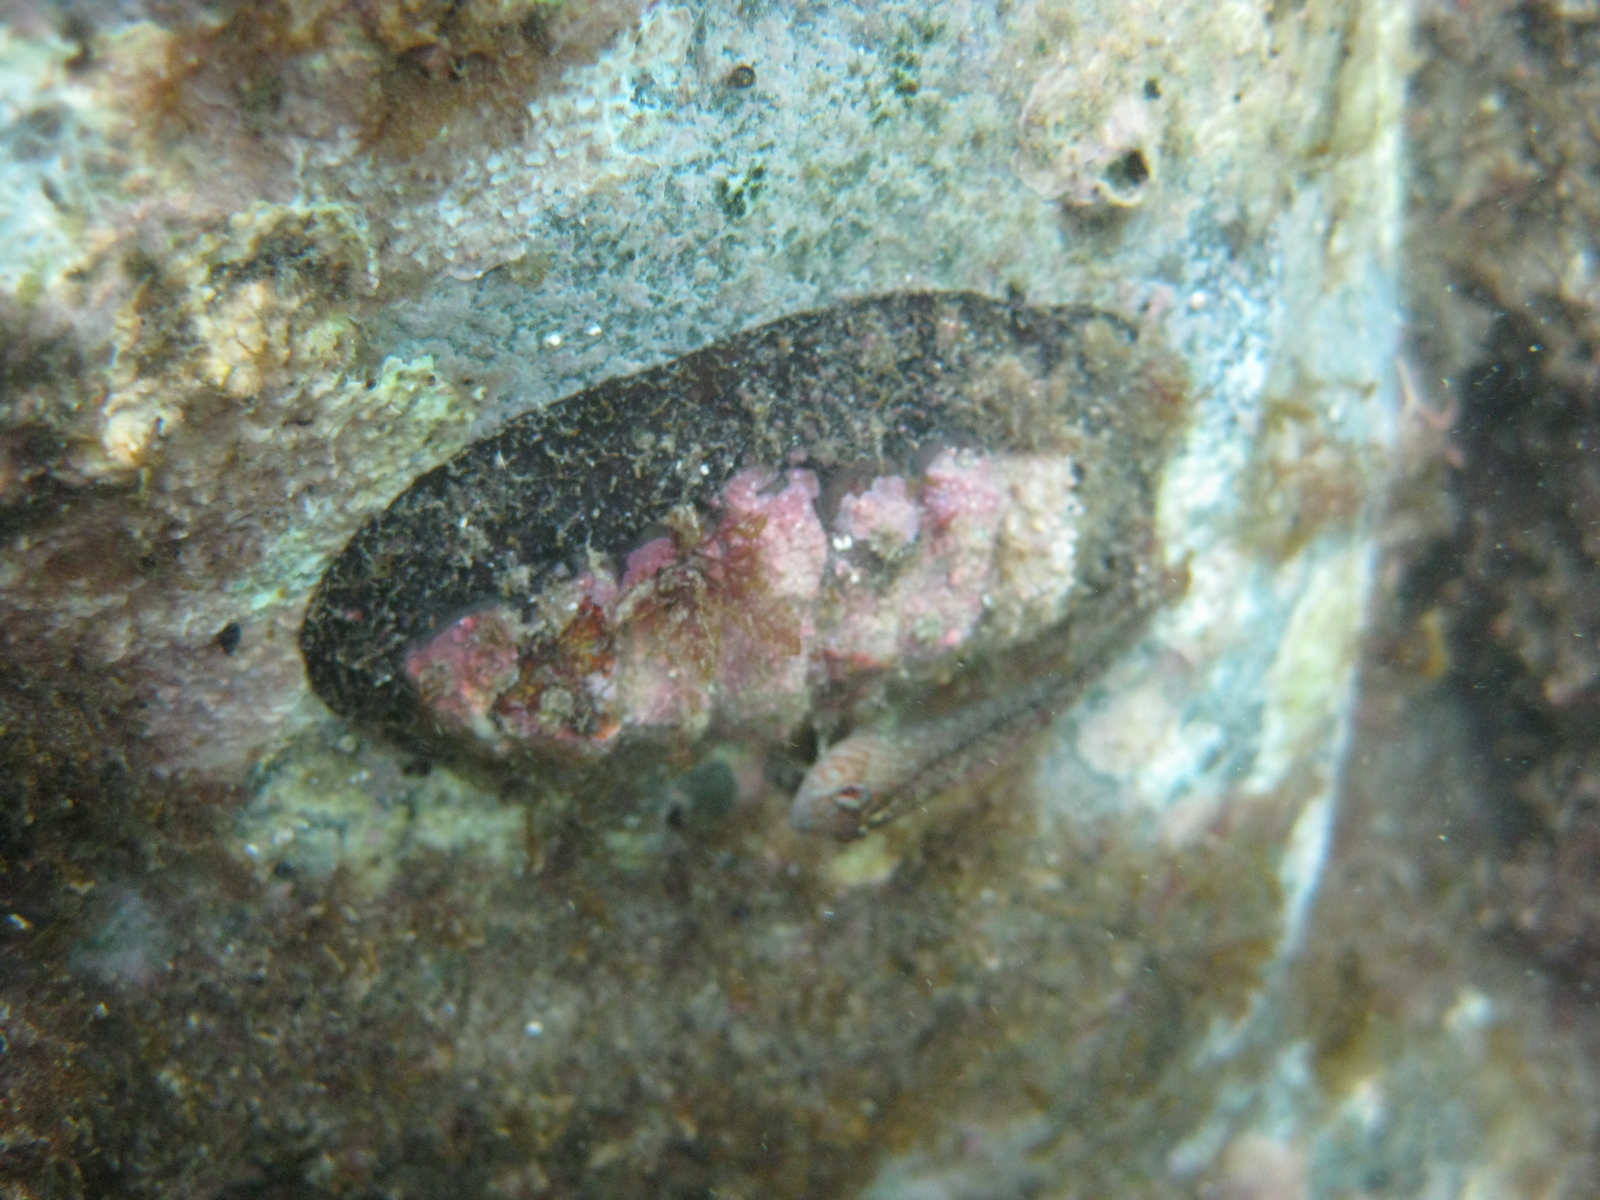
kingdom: Animalia
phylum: Mollusca
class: Polyplacophora
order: Callochitonida
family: Callochitonidae
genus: Eudoxochiton
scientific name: Eudoxochiton nobilis
